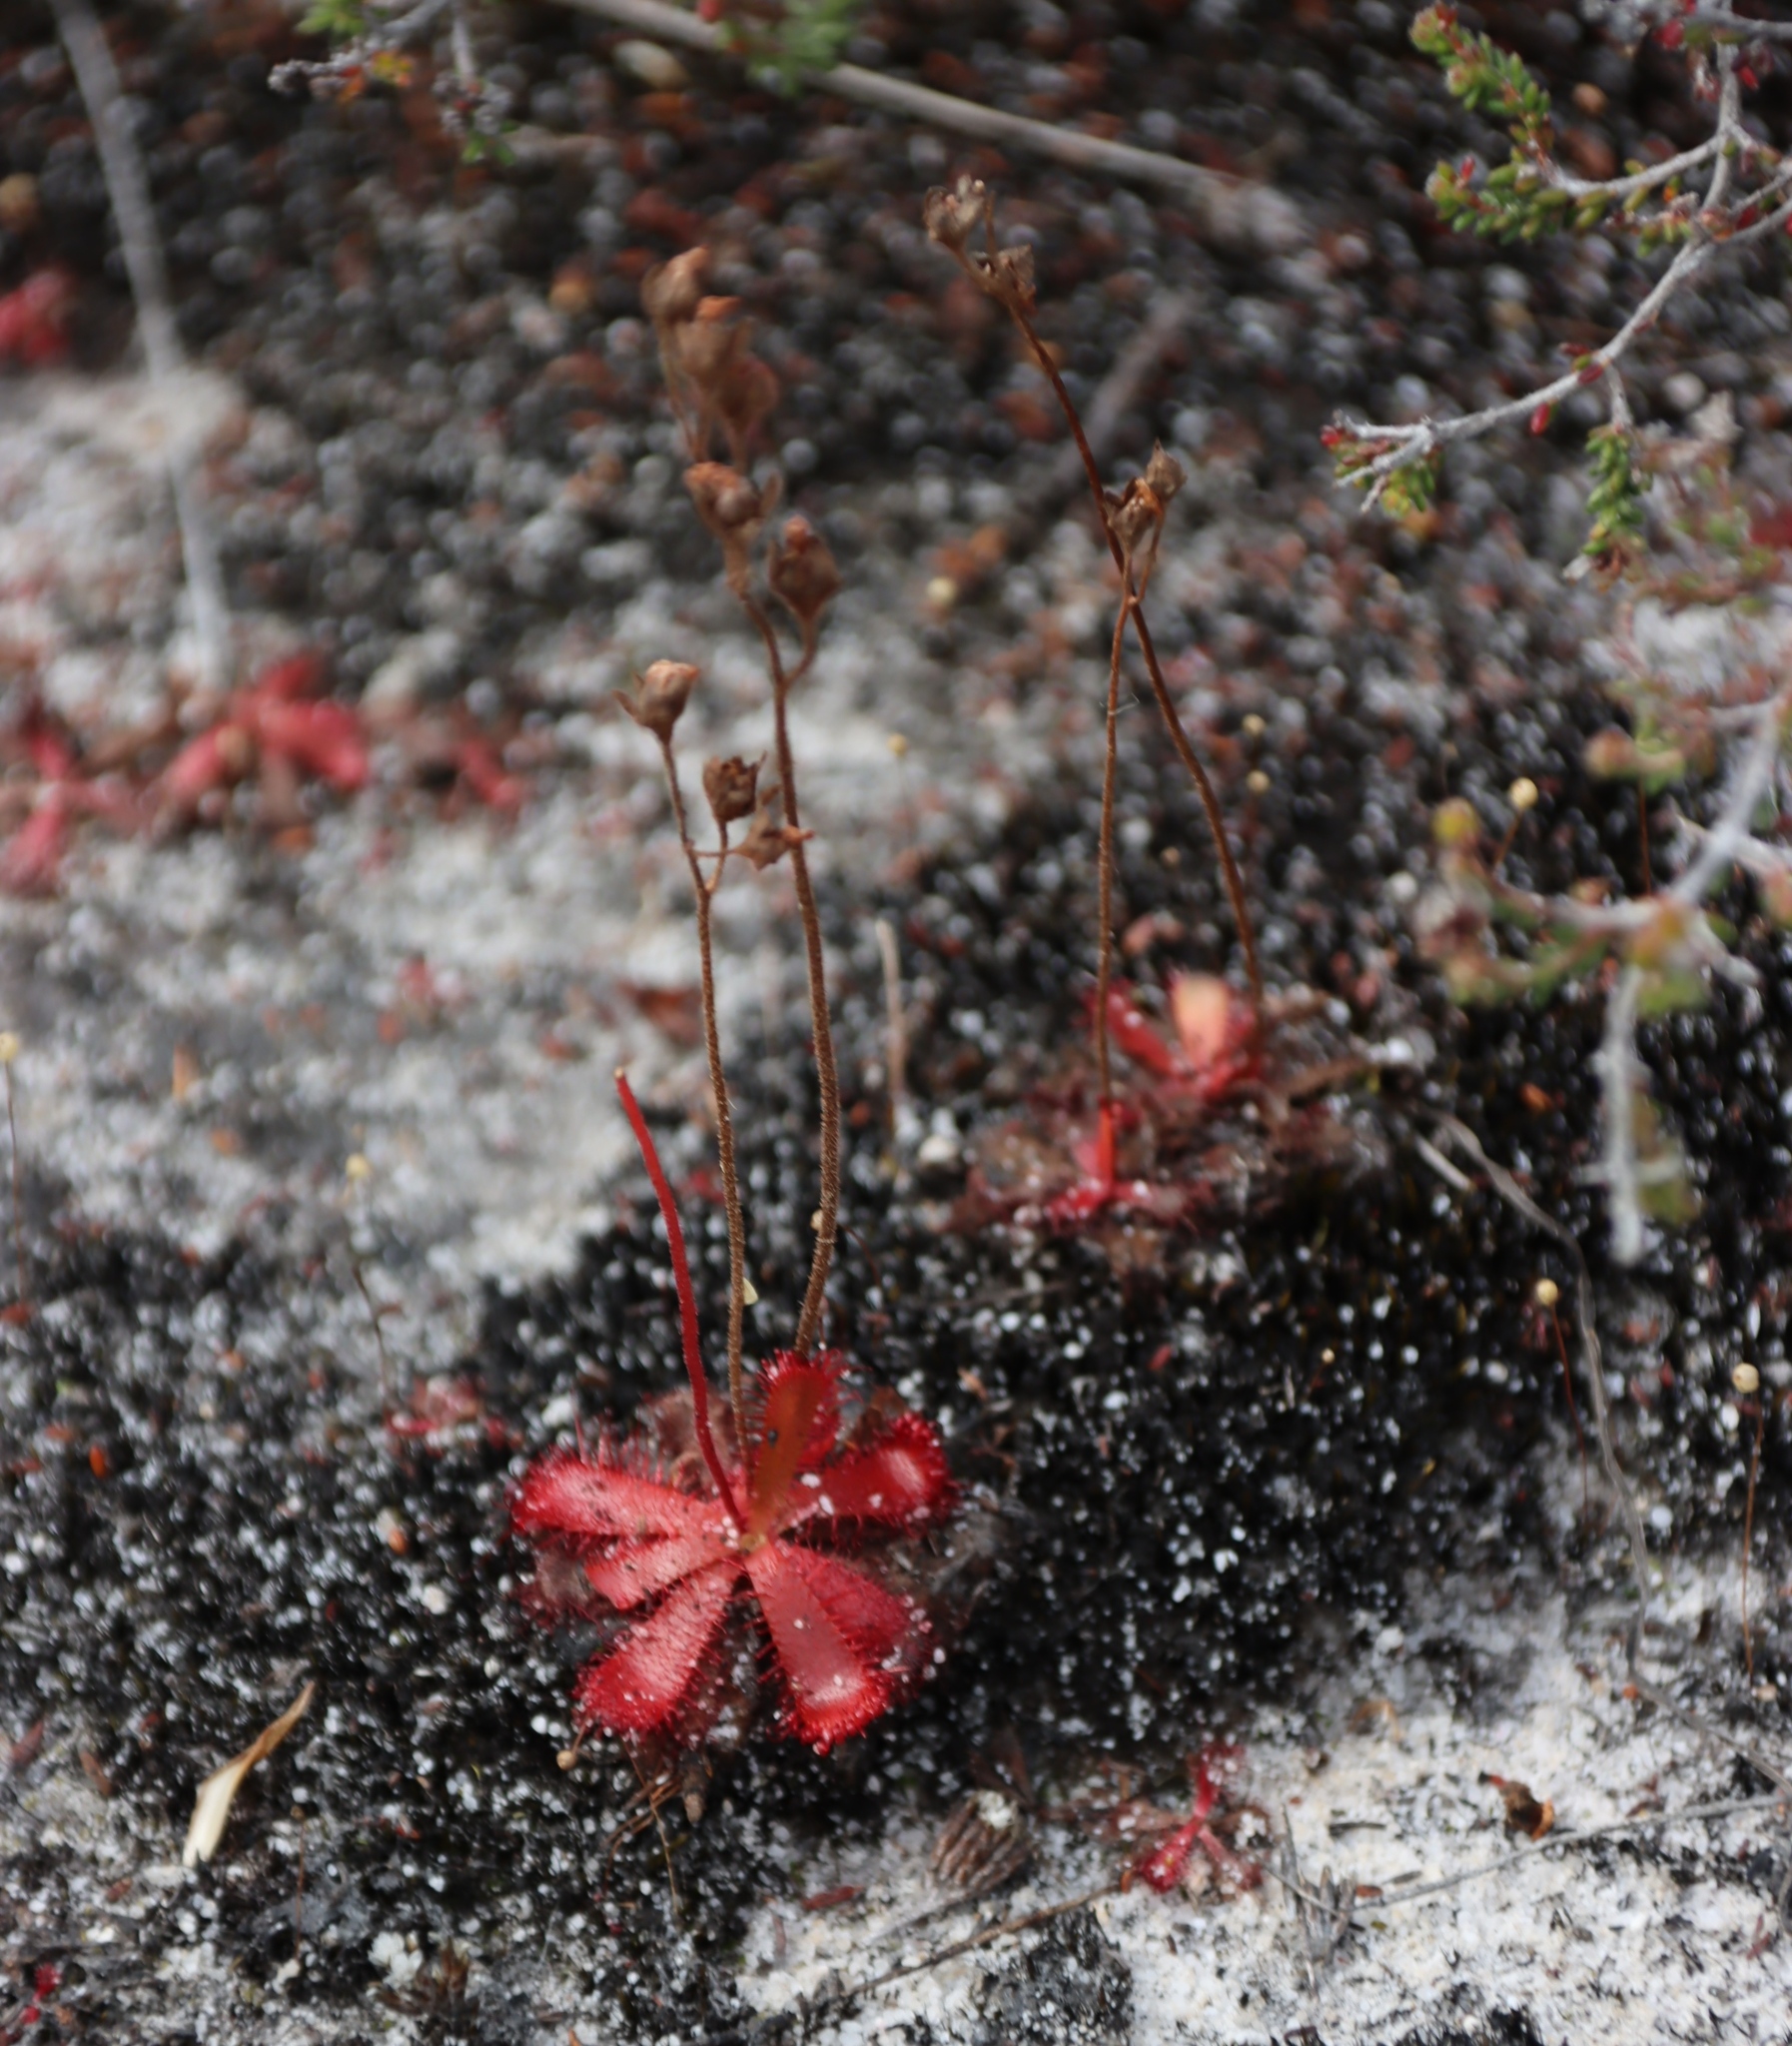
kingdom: Plantae
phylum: Tracheophyta
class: Magnoliopsida
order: Caryophyllales
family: Droseraceae
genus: Drosera
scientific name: Drosera trinervia
